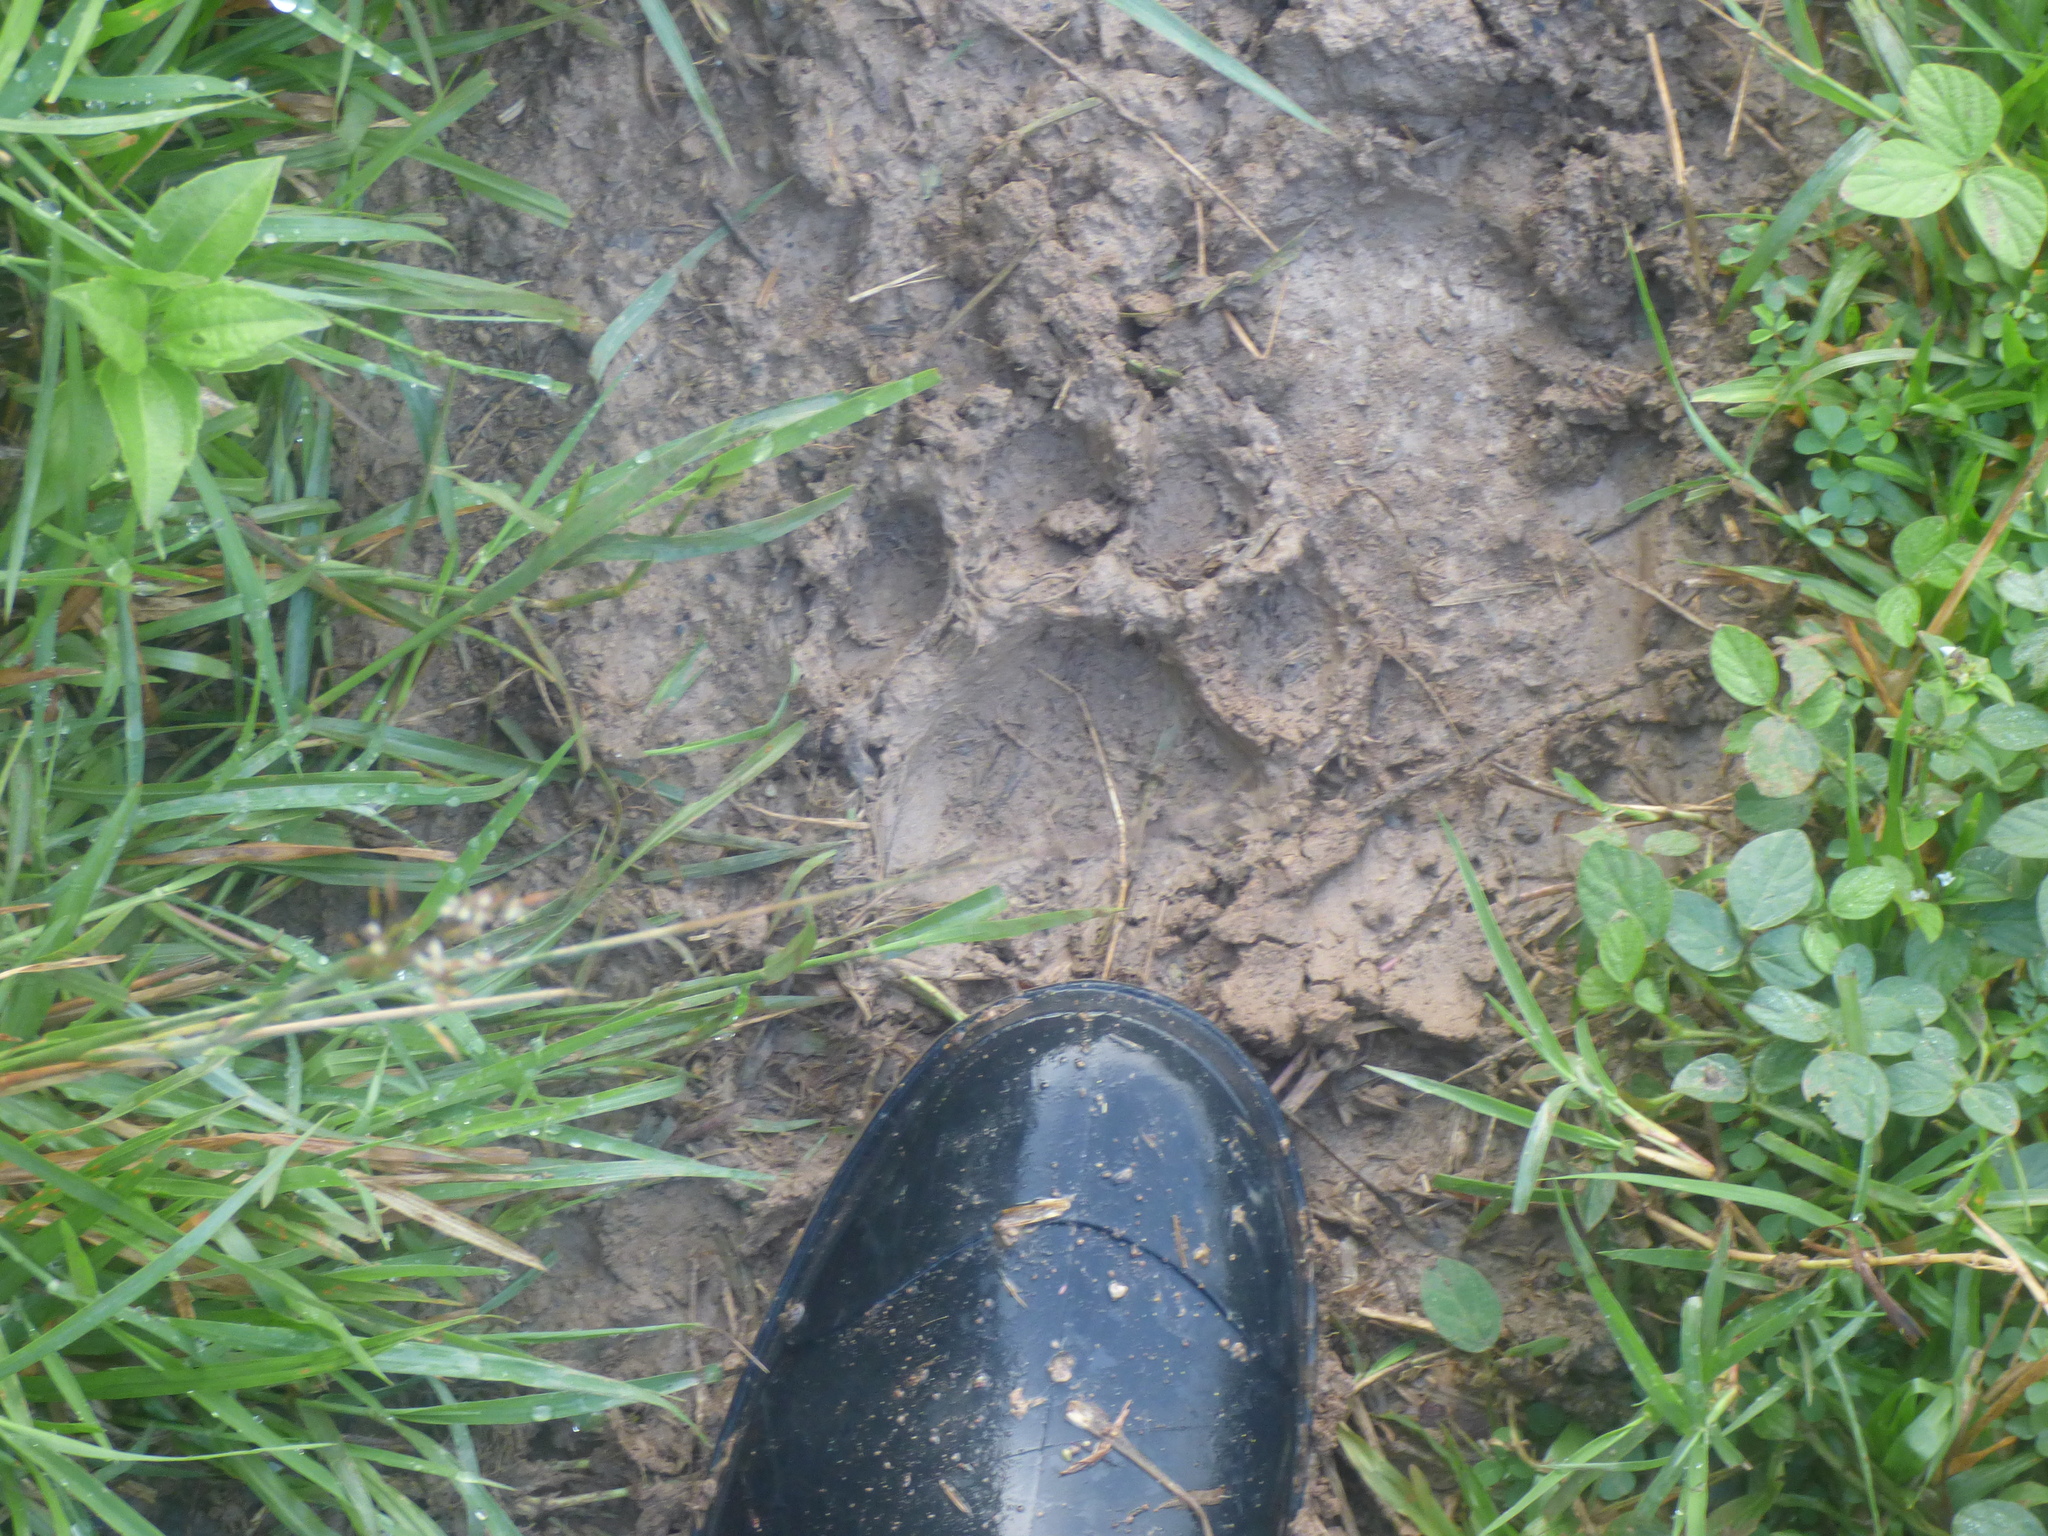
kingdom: Animalia
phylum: Chordata
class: Mammalia
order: Carnivora
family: Felidae
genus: Panthera
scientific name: Panthera onca
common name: Jaguar
